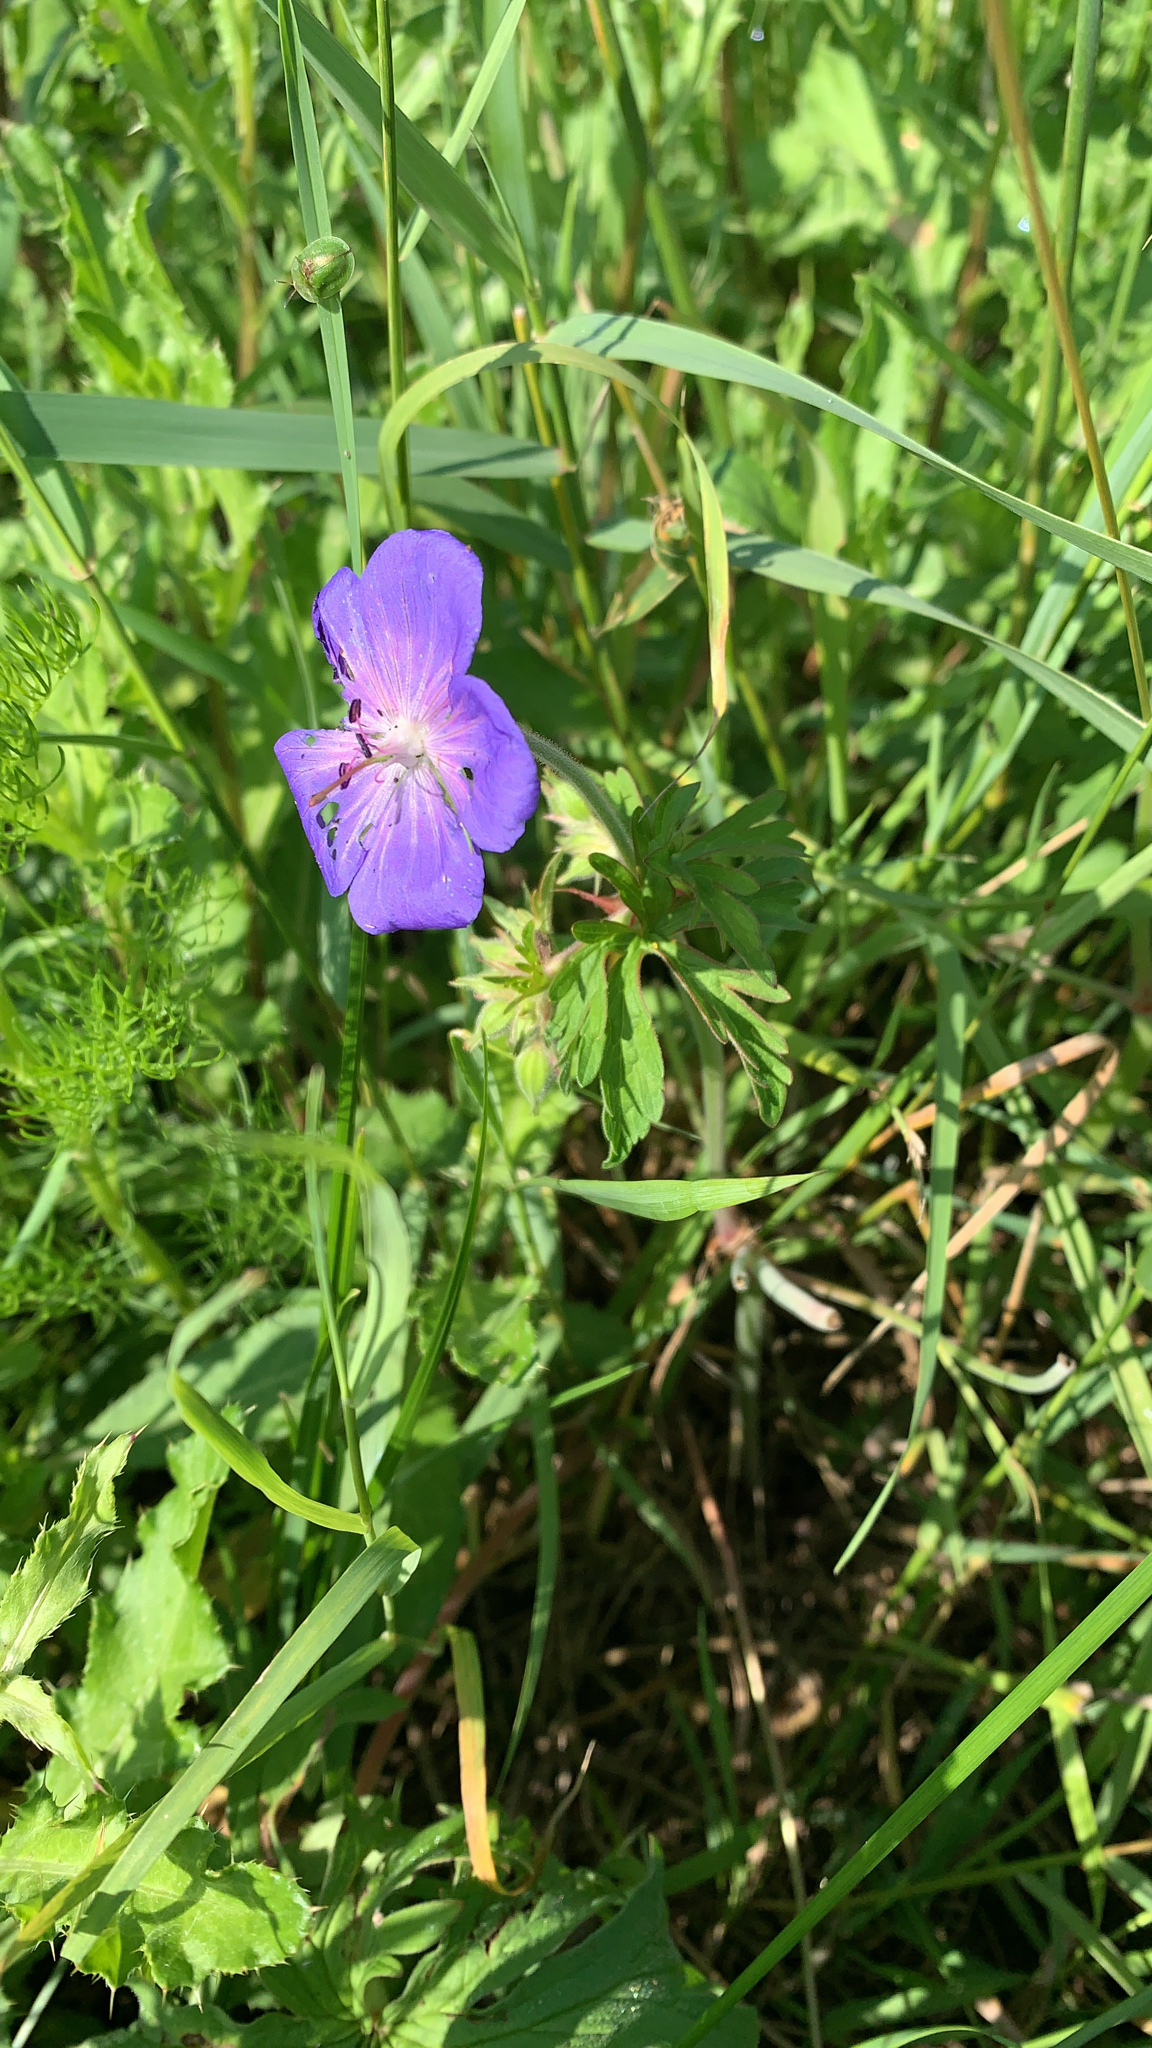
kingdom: Plantae
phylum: Tracheophyta
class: Magnoliopsida
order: Geraniales
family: Geraniaceae
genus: Geranium
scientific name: Geranium pratense
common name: Meadow crane's-bill
